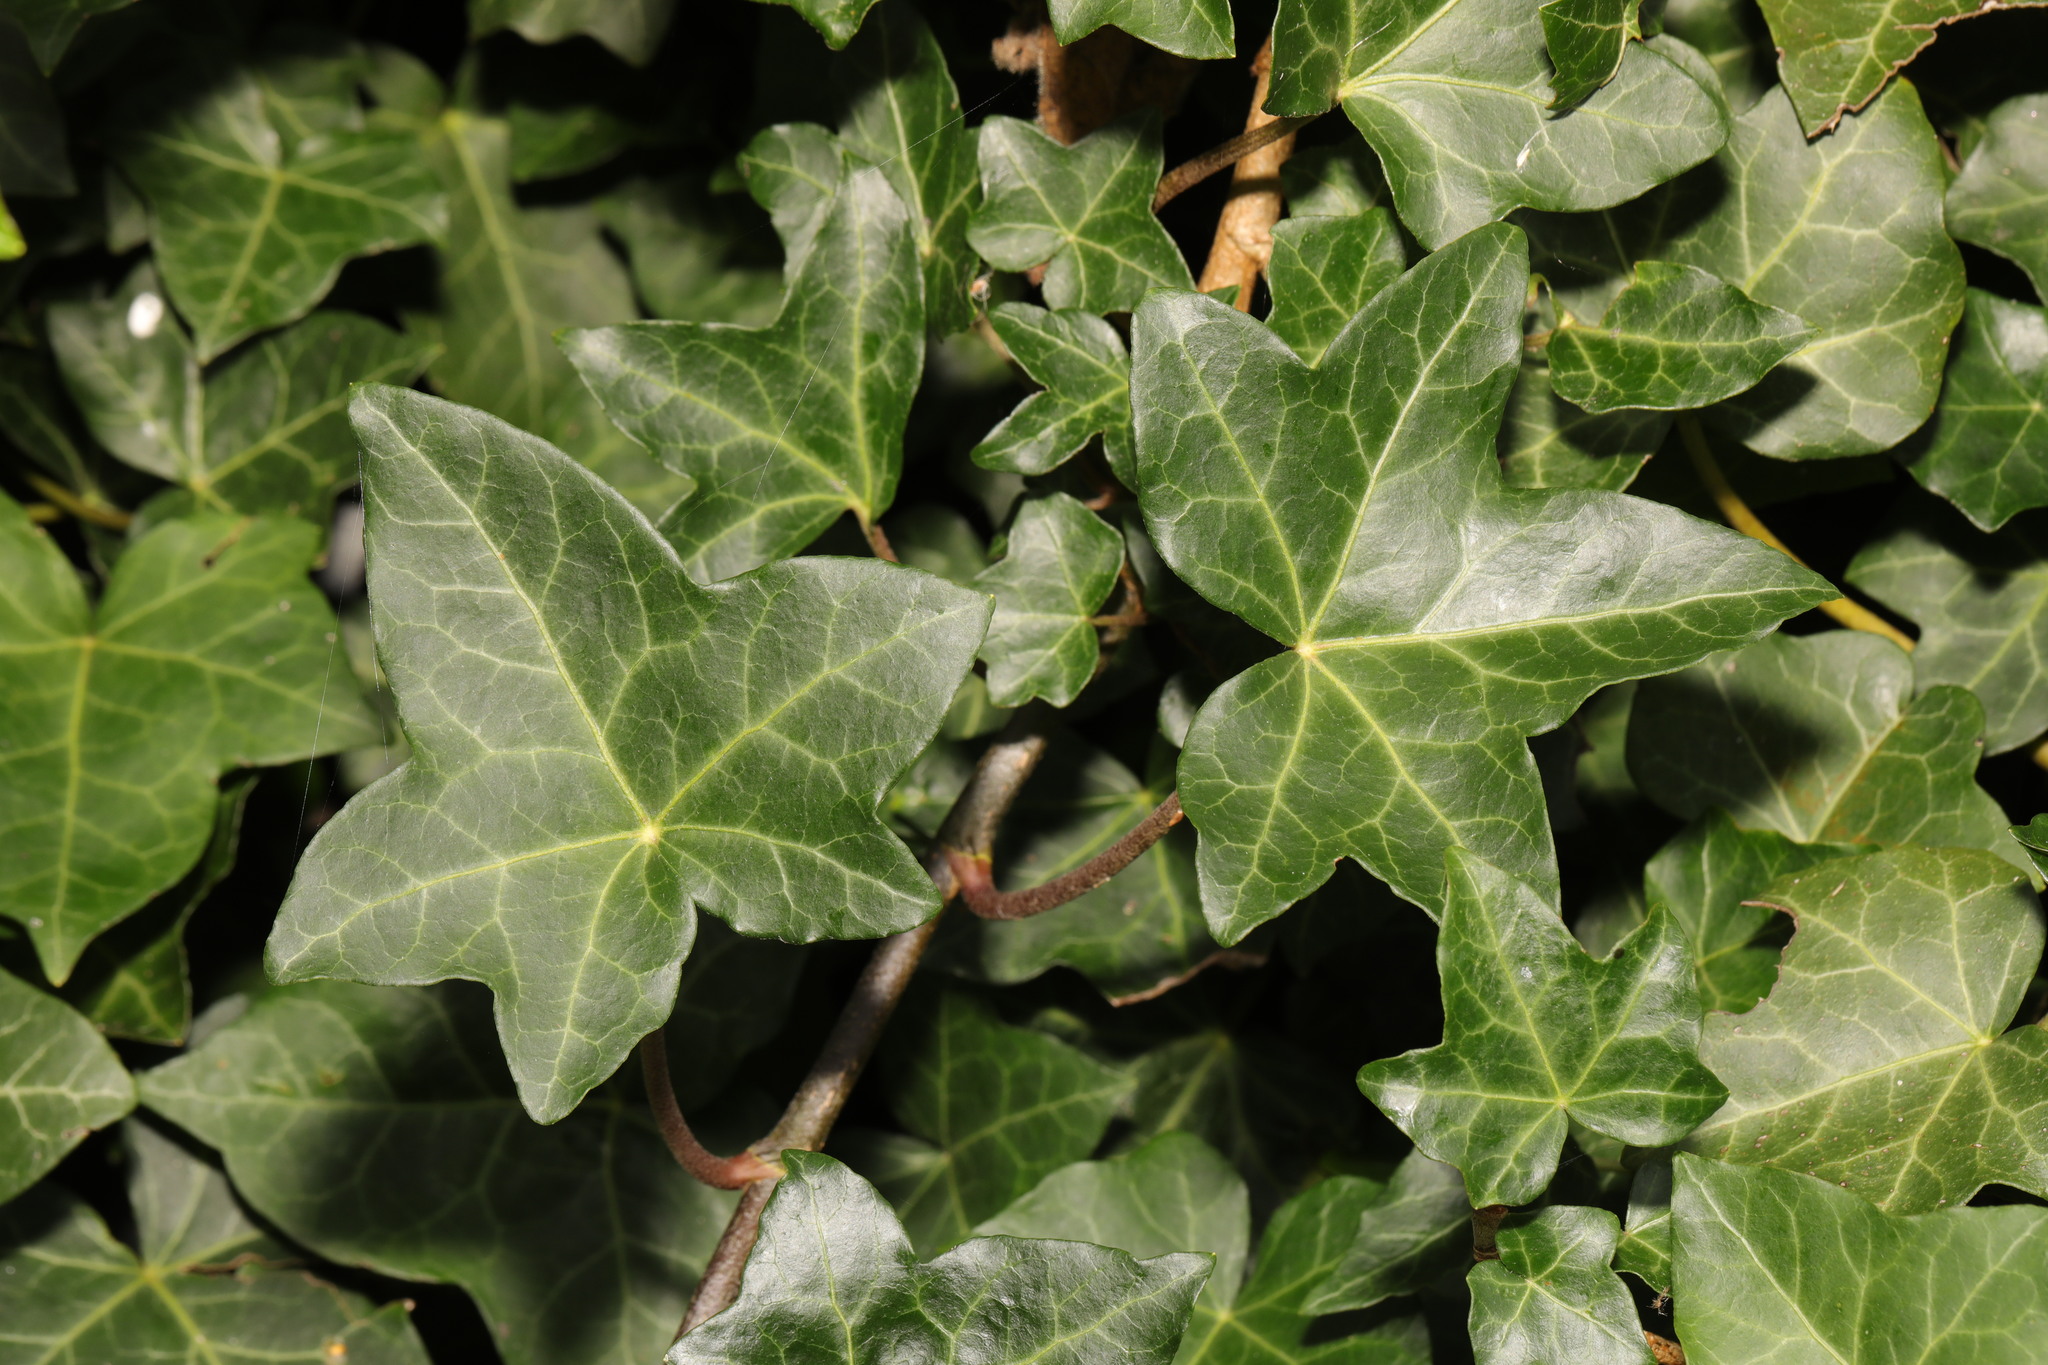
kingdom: Plantae
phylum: Tracheophyta
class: Magnoliopsida
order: Apiales
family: Araliaceae
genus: Hedera
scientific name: Hedera helix
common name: Ivy
